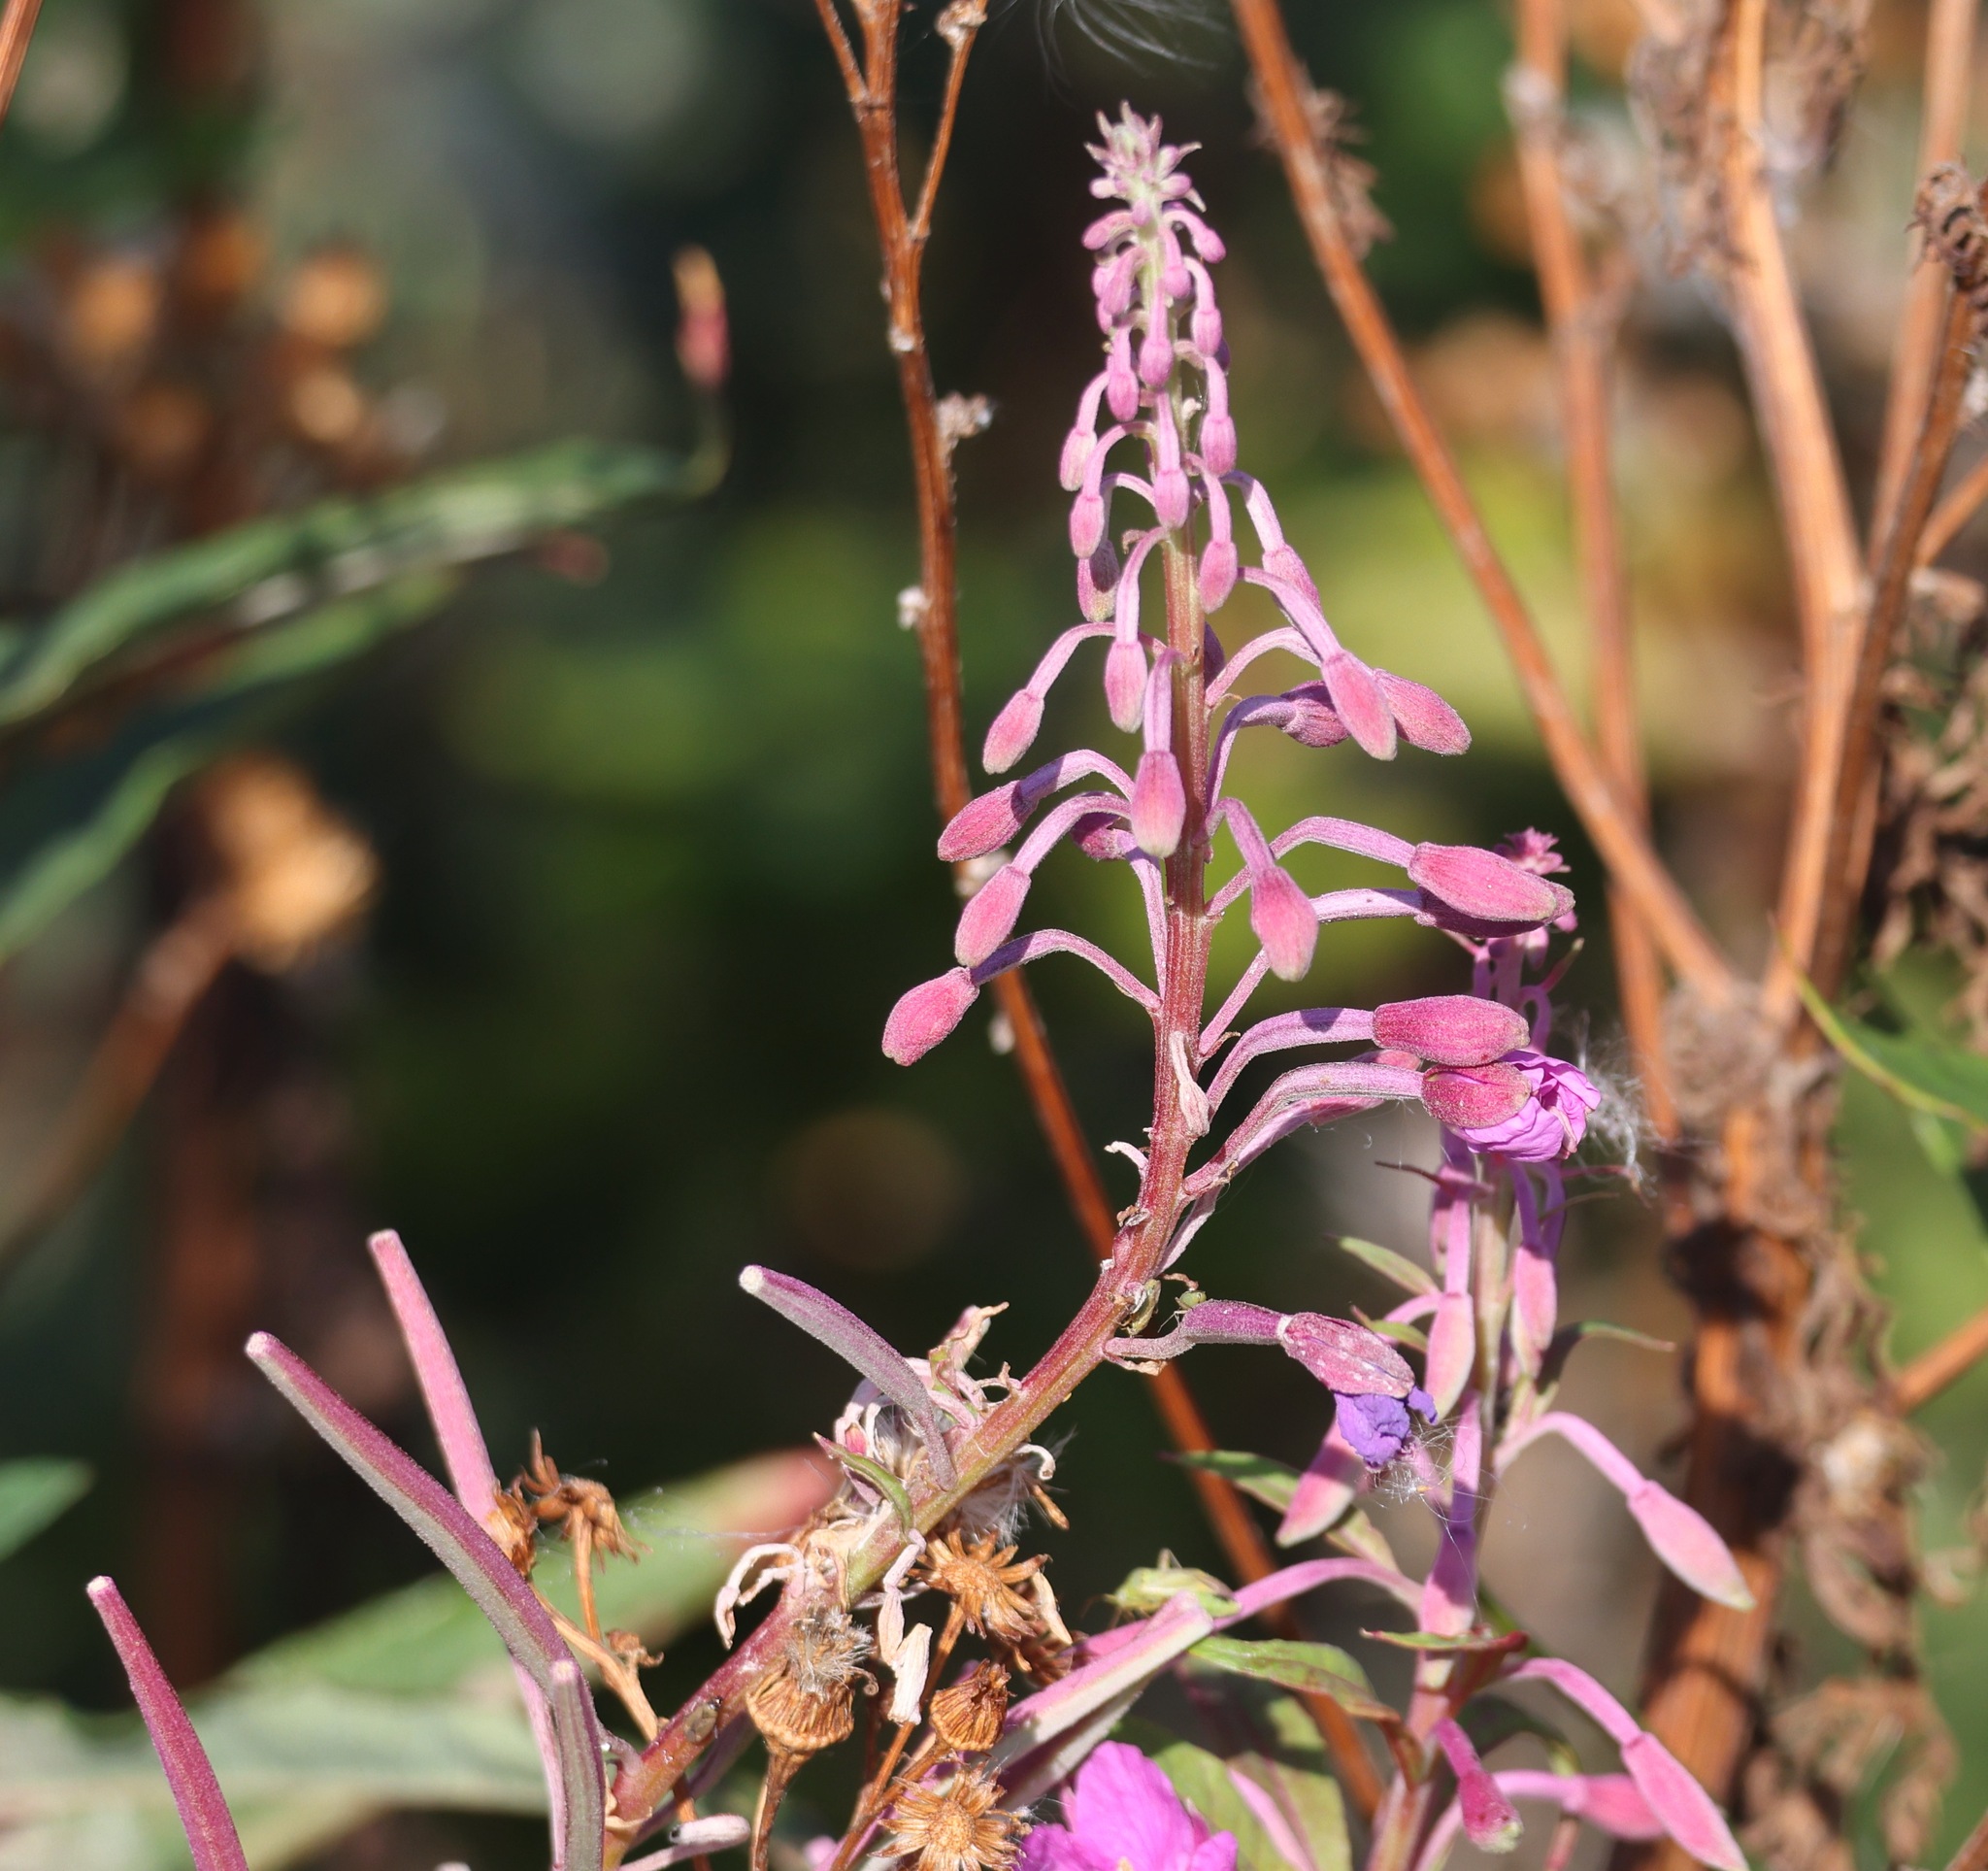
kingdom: Plantae
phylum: Tracheophyta
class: Magnoliopsida
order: Myrtales
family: Onagraceae
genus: Chamaenerion
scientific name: Chamaenerion angustifolium
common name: Fireweed
